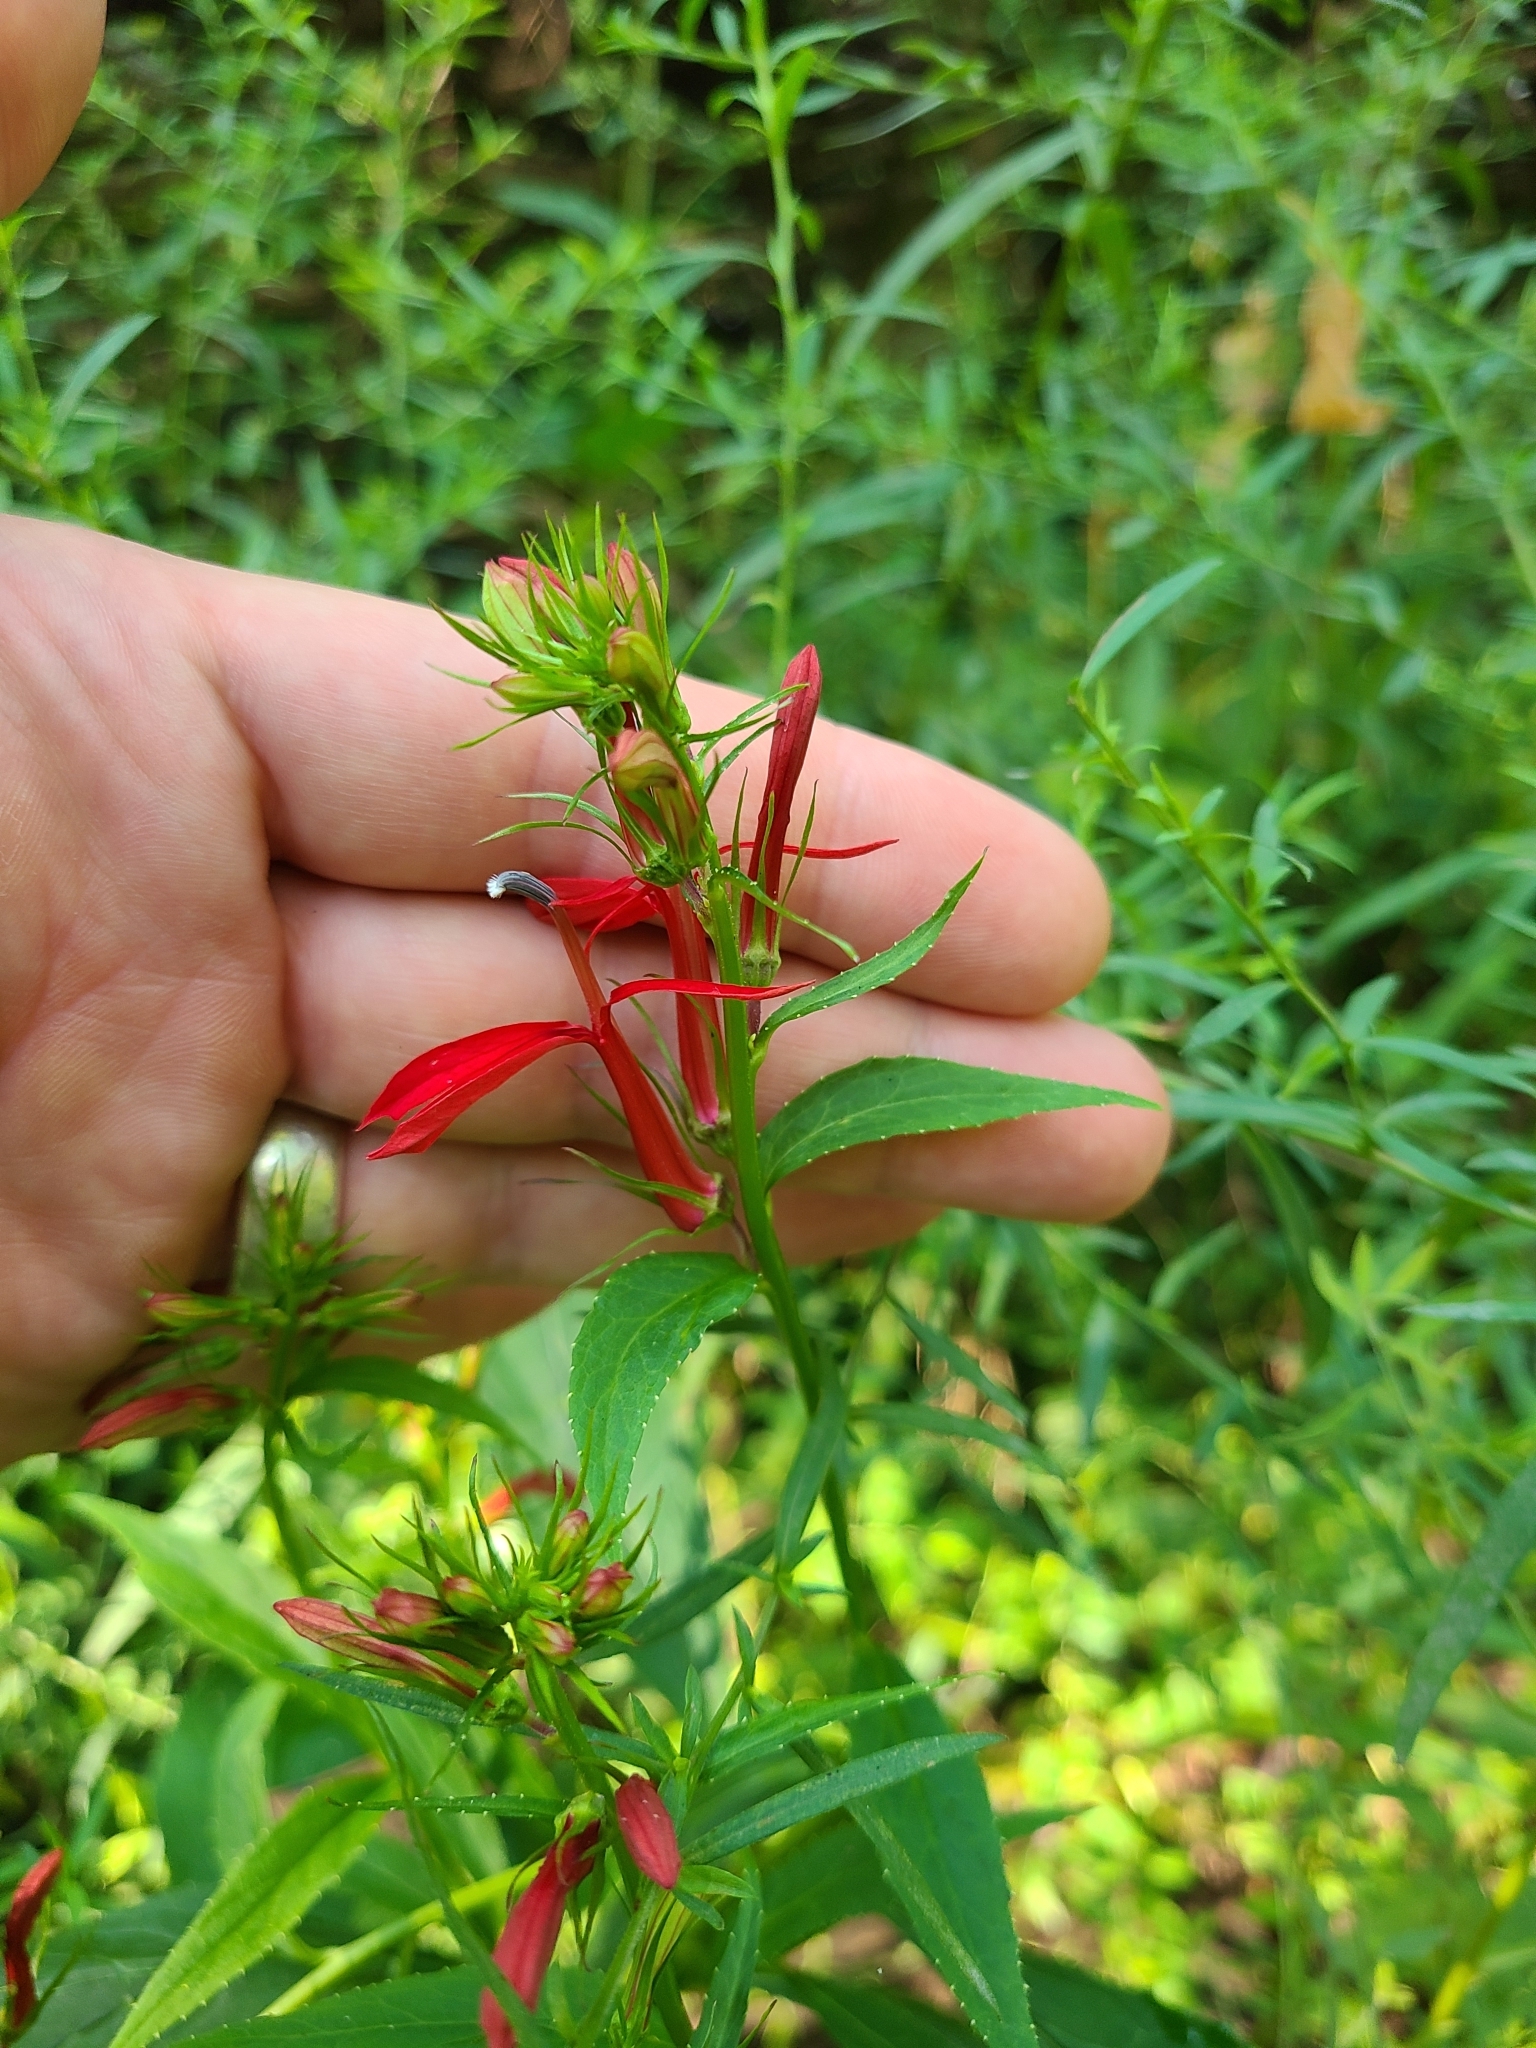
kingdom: Plantae
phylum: Tracheophyta
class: Magnoliopsida
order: Asterales
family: Campanulaceae
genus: Lobelia
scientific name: Lobelia cardinalis
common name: Cardinal flower
